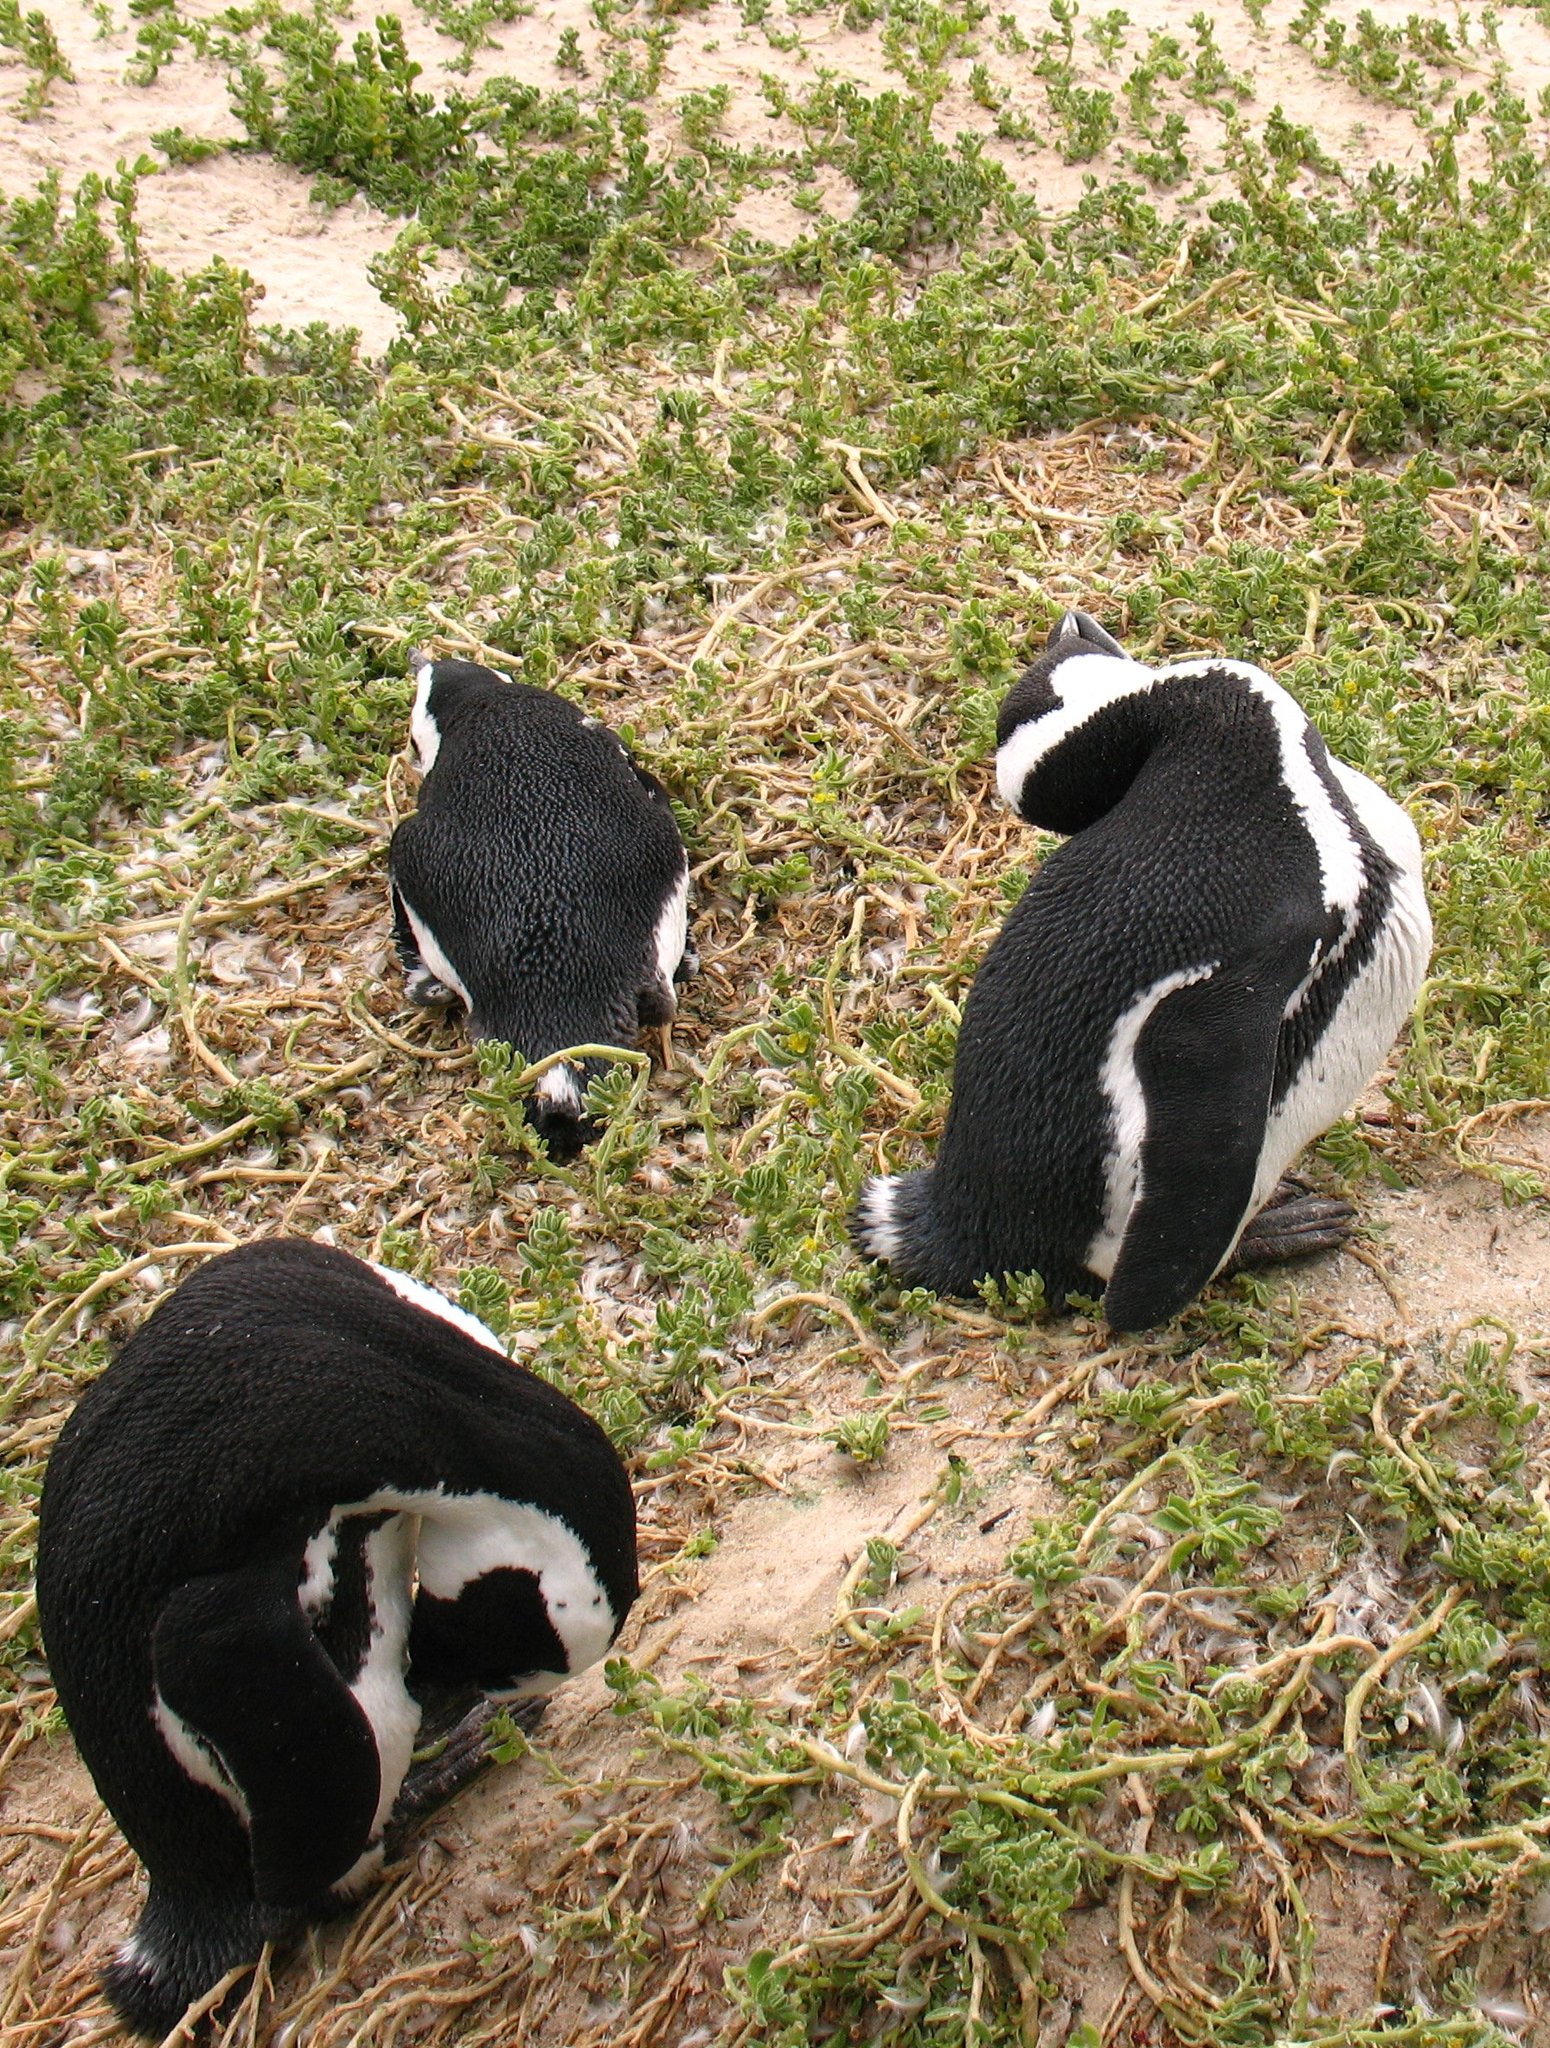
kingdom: Animalia
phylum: Chordata
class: Aves
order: Sphenisciformes
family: Spheniscidae
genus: Spheniscus
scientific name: Spheniscus demersus
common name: African penguin
